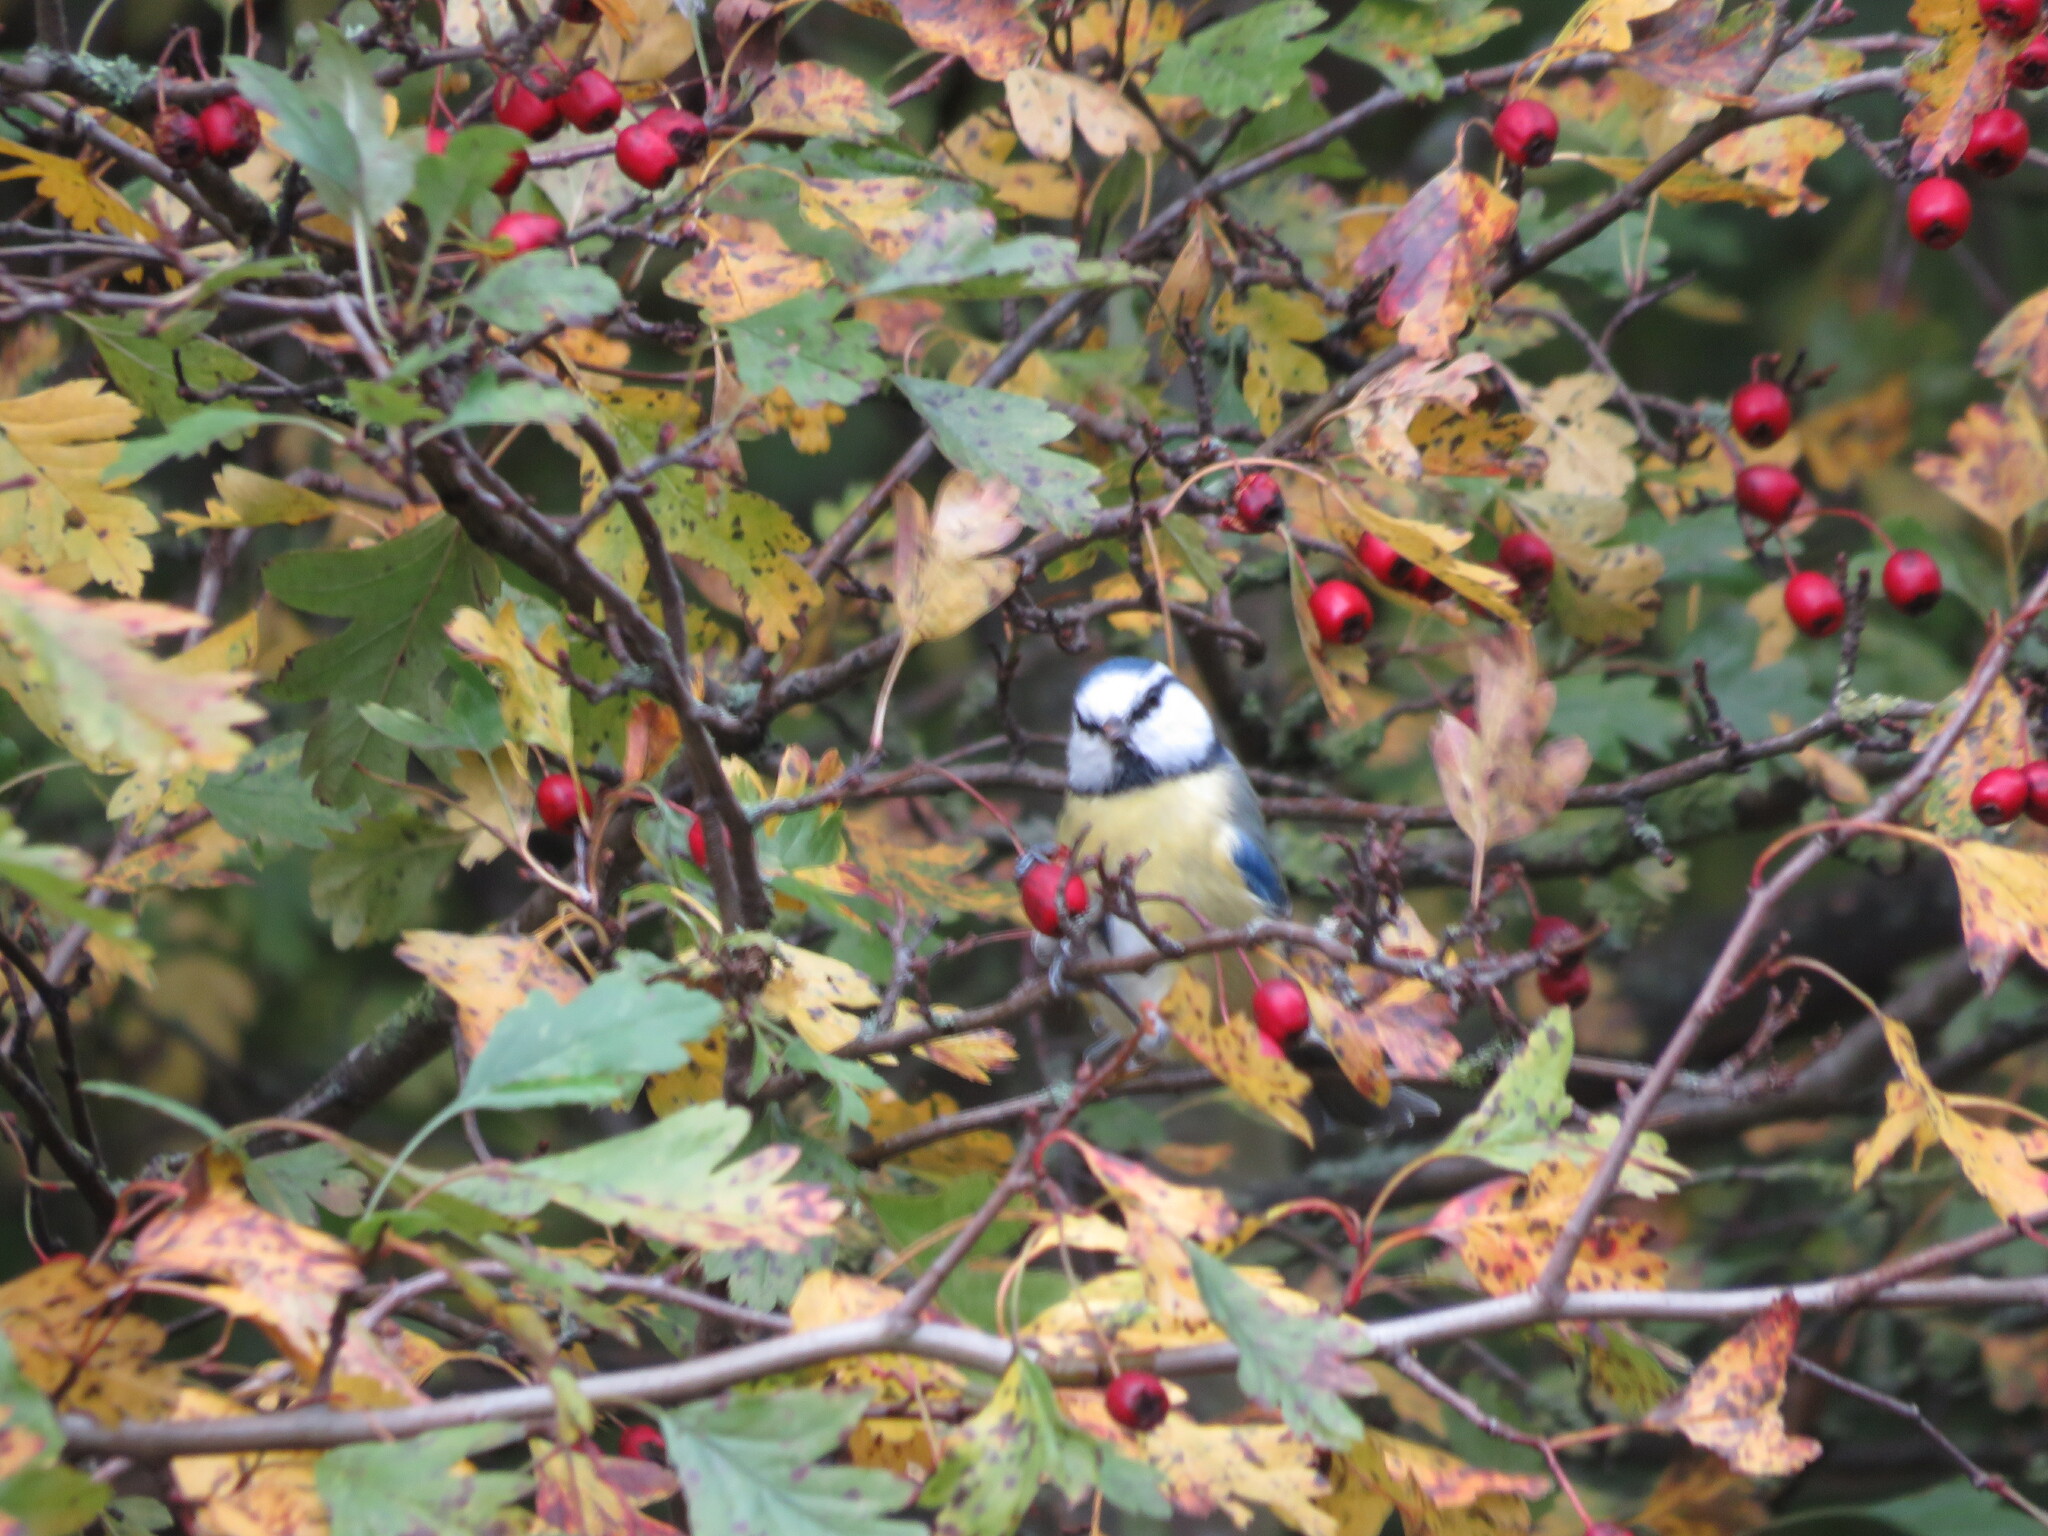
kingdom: Animalia
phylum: Chordata
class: Aves
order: Passeriformes
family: Paridae
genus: Cyanistes
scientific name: Cyanistes caeruleus
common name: Eurasian blue tit
